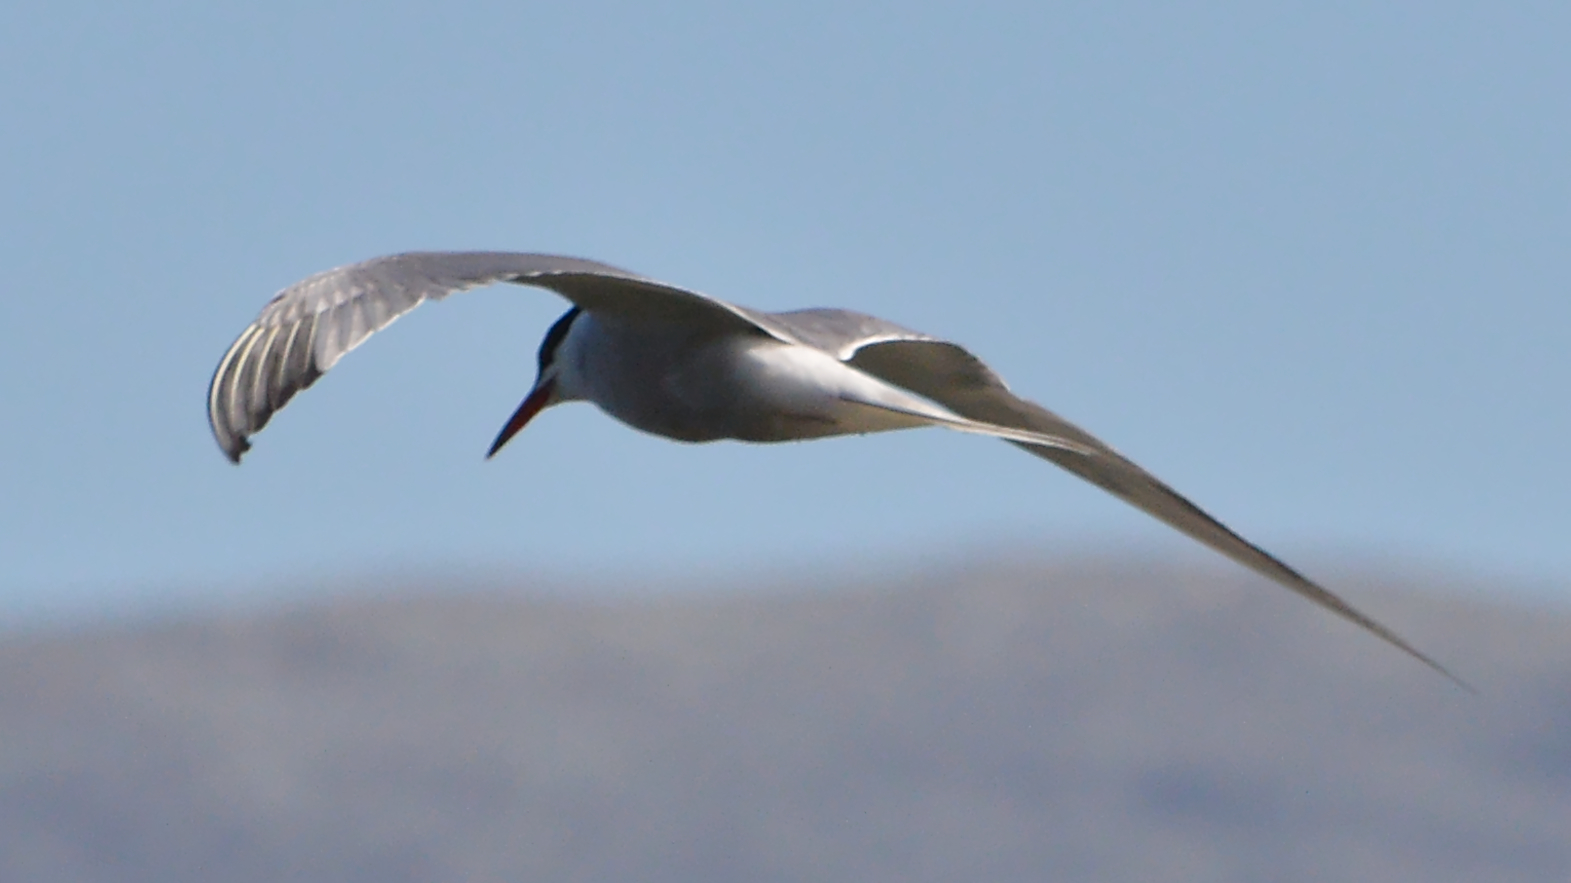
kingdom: Animalia
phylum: Chordata
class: Aves
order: Charadriiformes
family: Laridae
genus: Sterna
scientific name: Sterna hirundo
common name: Common tern
